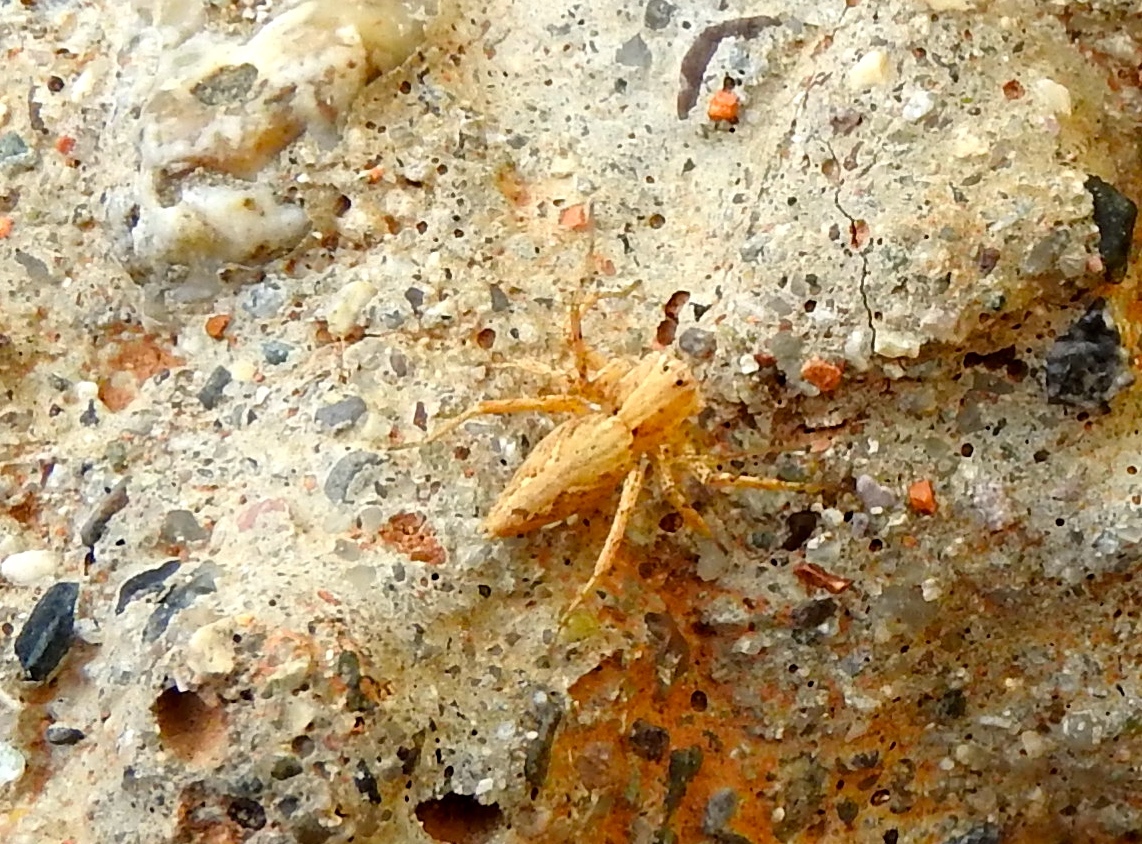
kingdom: Animalia
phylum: Arthropoda
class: Arachnida
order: Araneae
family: Oxyopidae
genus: Oxyopes
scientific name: Oxyopes
